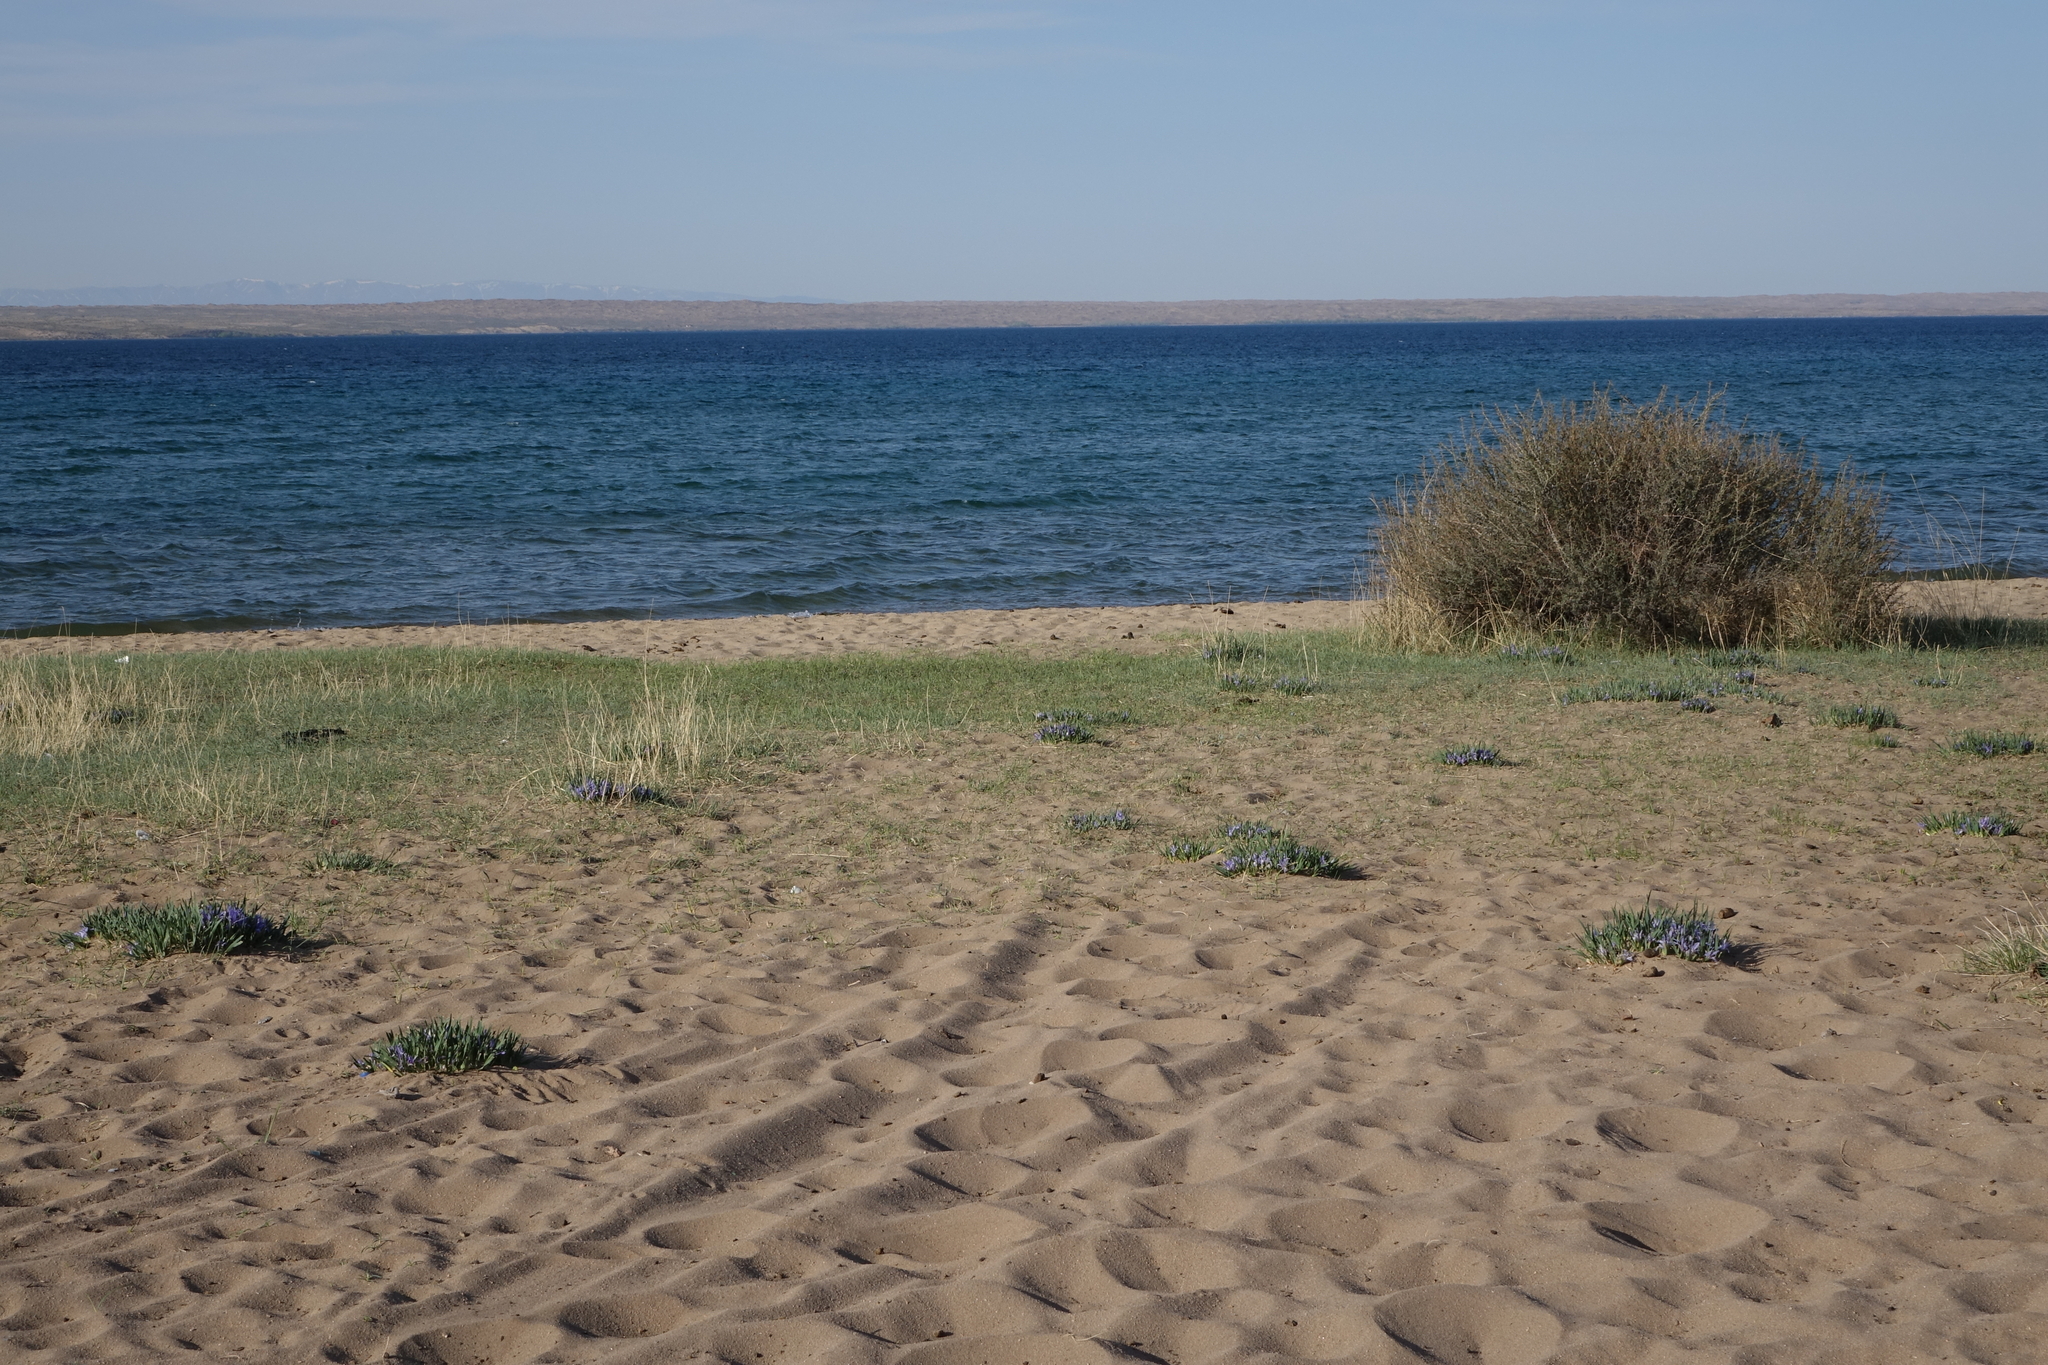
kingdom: Plantae
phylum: Tracheophyta
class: Liliopsida
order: Asparagales
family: Iridaceae
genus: Iris
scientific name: Iris lactea
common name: White-flower chinese iris
